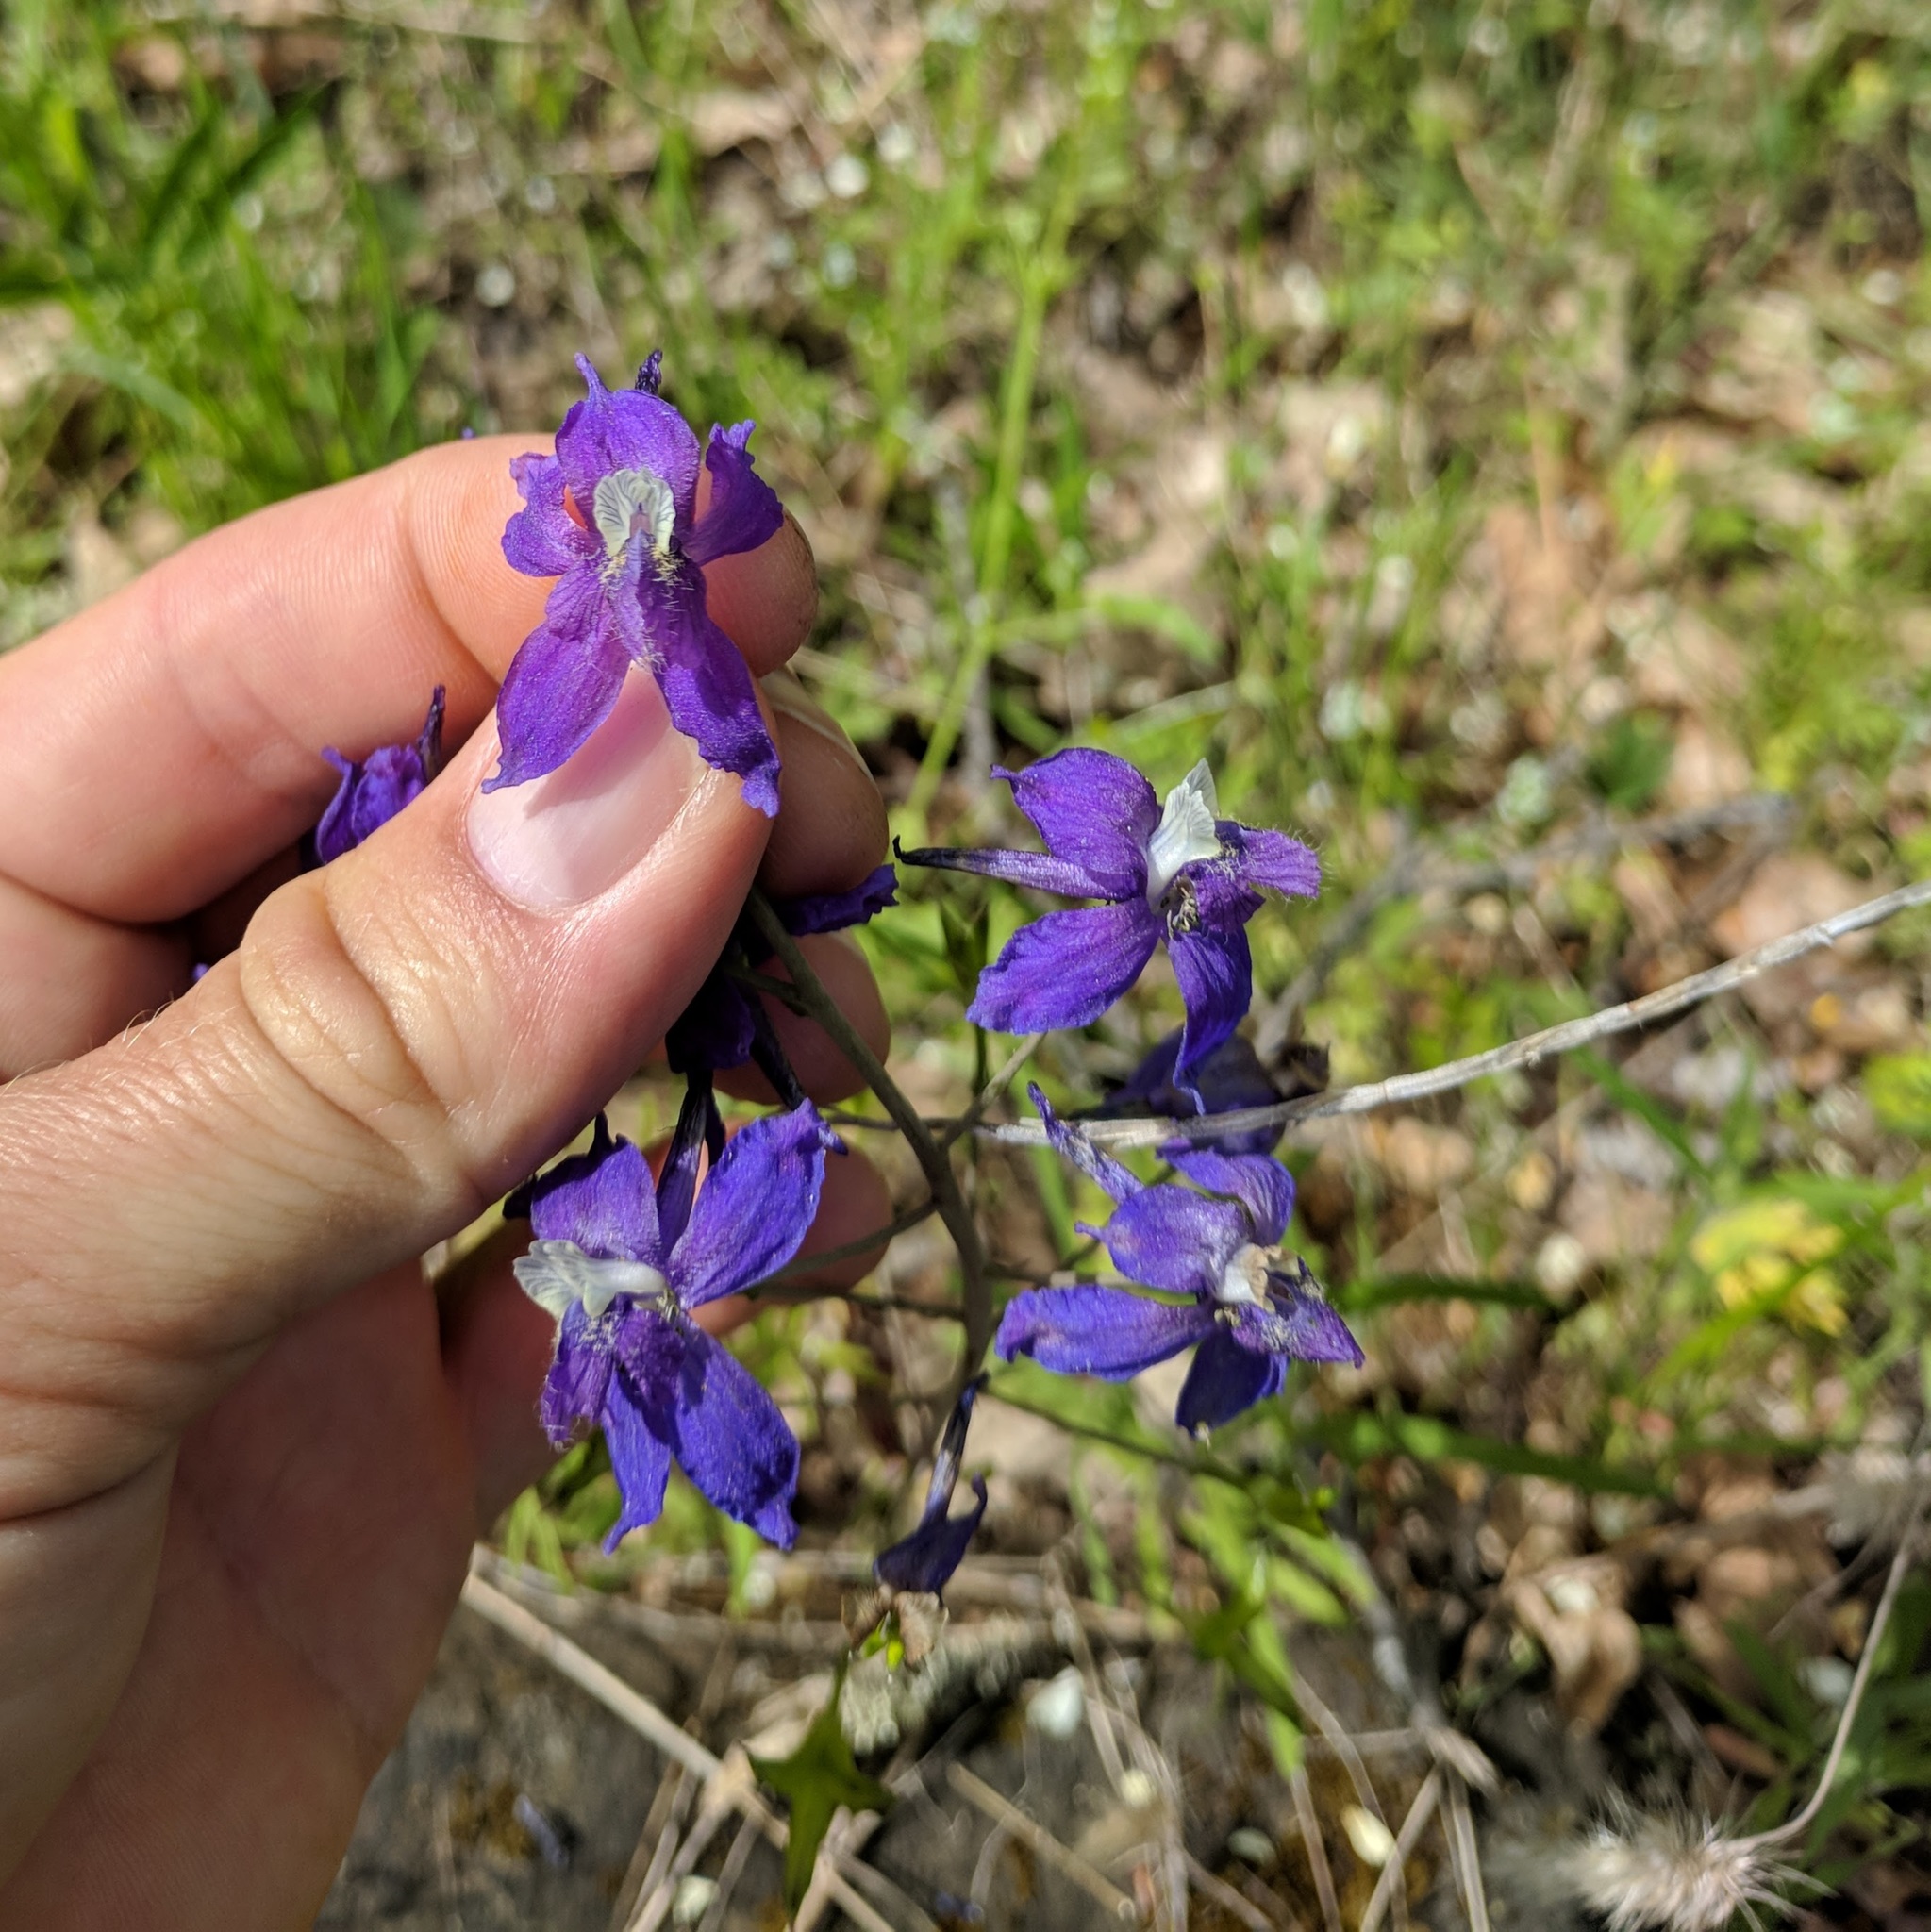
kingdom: Plantae
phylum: Tracheophyta
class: Magnoliopsida
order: Ranunculales
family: Ranunculaceae
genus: Delphinium
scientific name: Delphinium nuttallianum
